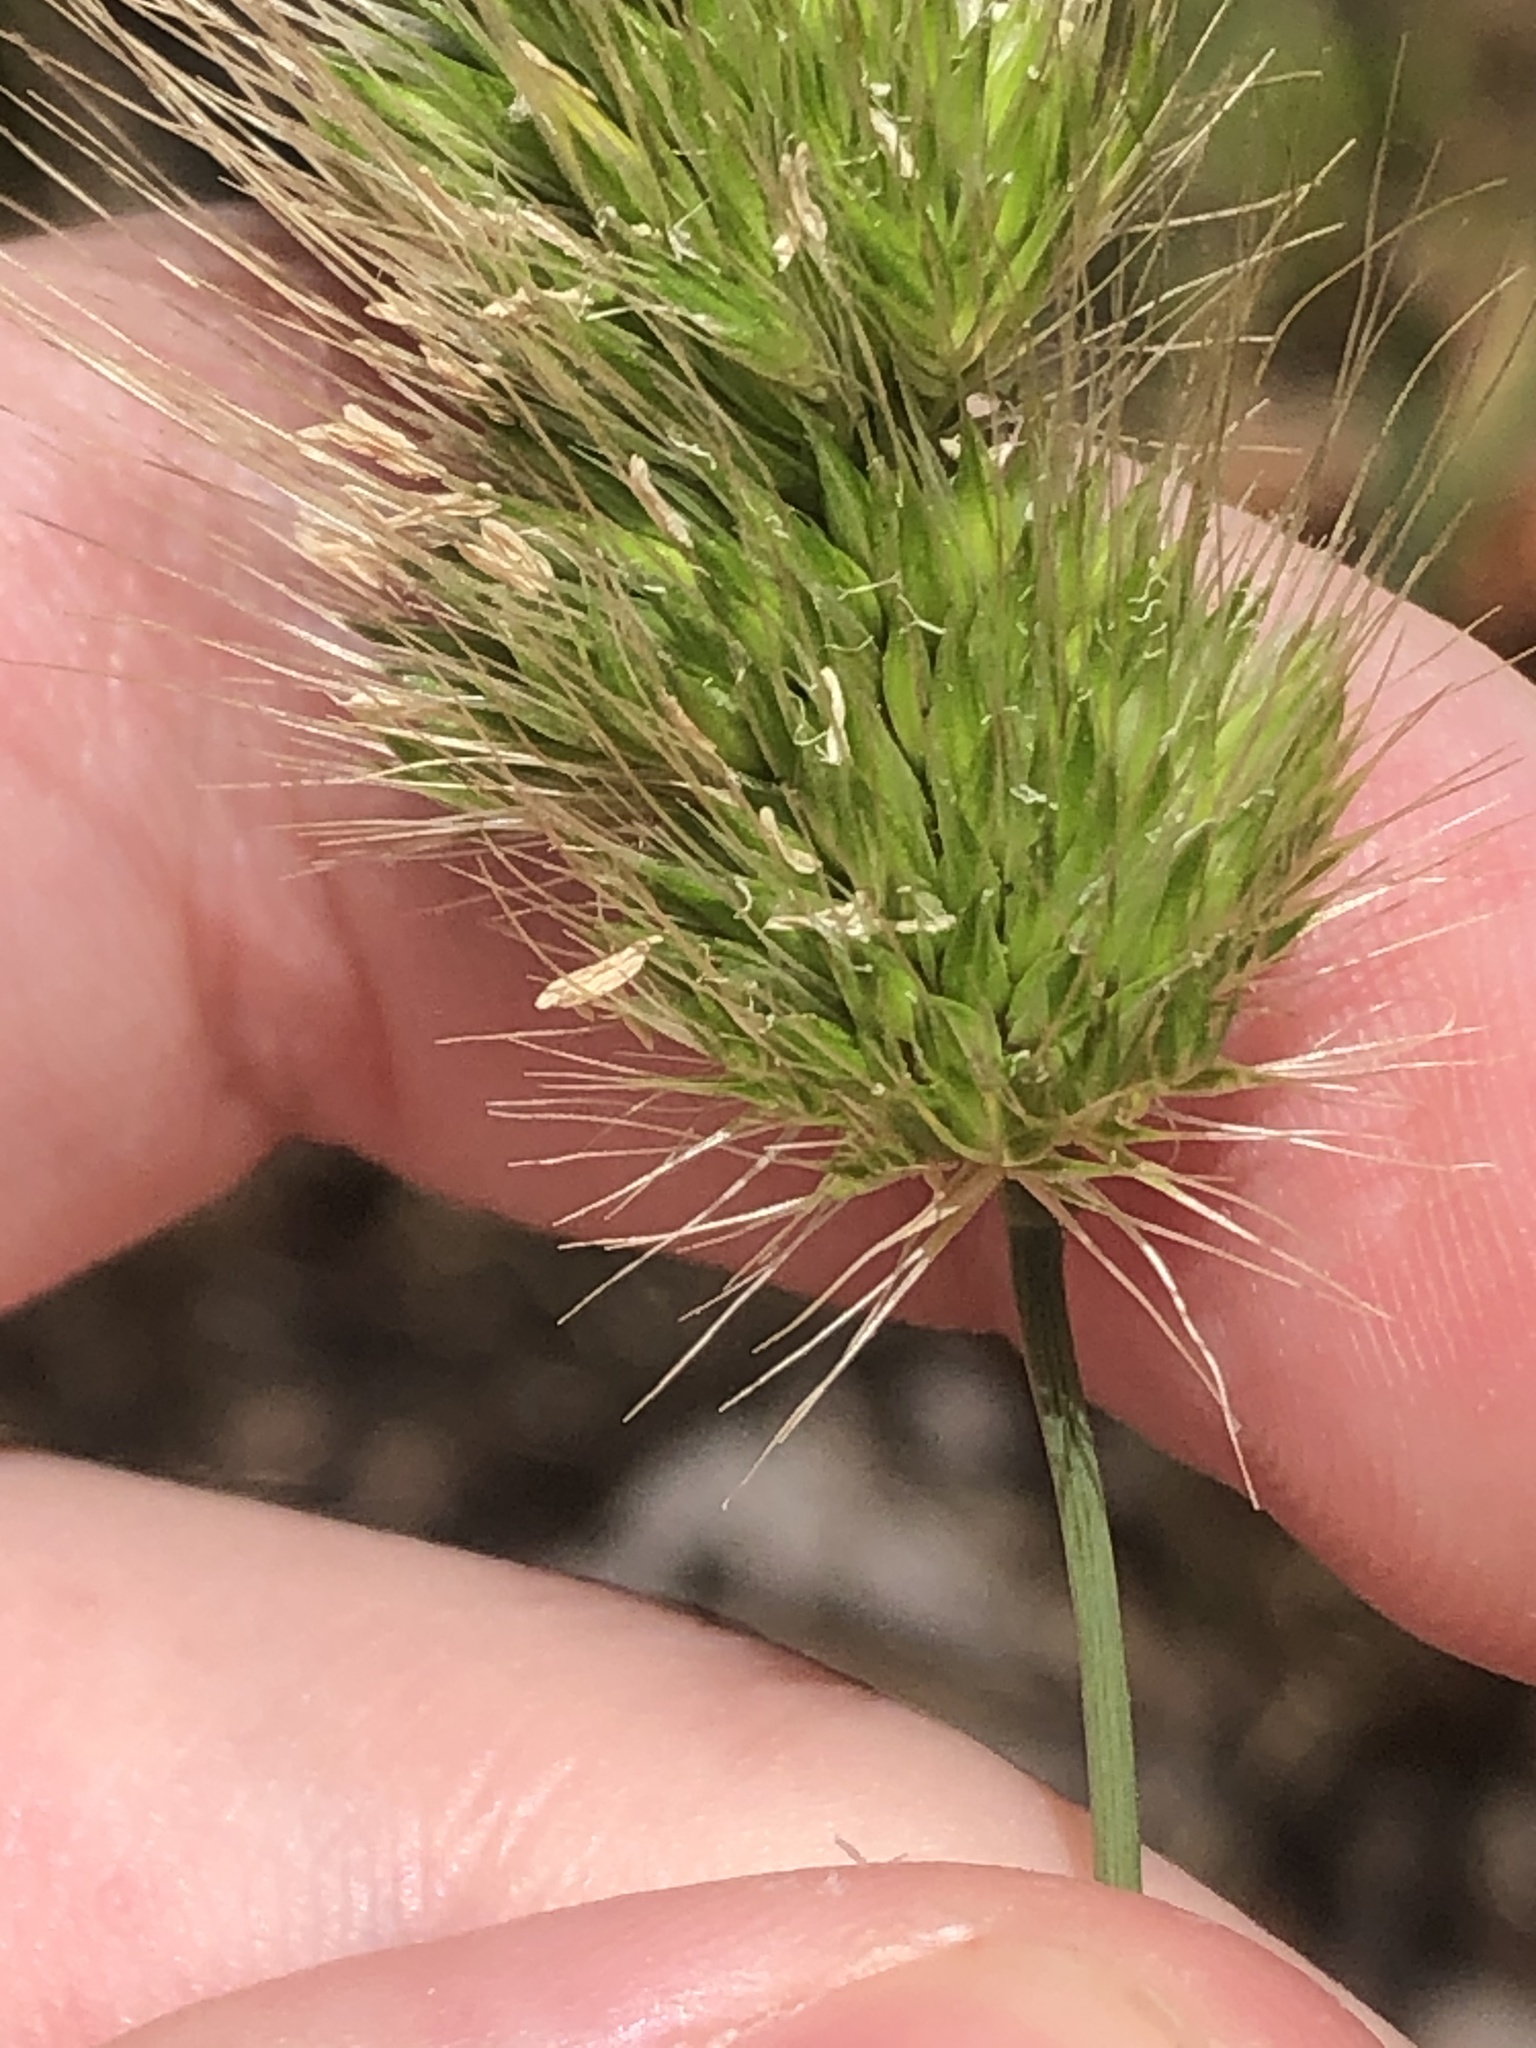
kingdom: Plantae
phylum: Tracheophyta
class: Liliopsida
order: Poales
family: Poaceae
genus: Cynosurus
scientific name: Cynosurus echinatus
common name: Rough dog's-tail
